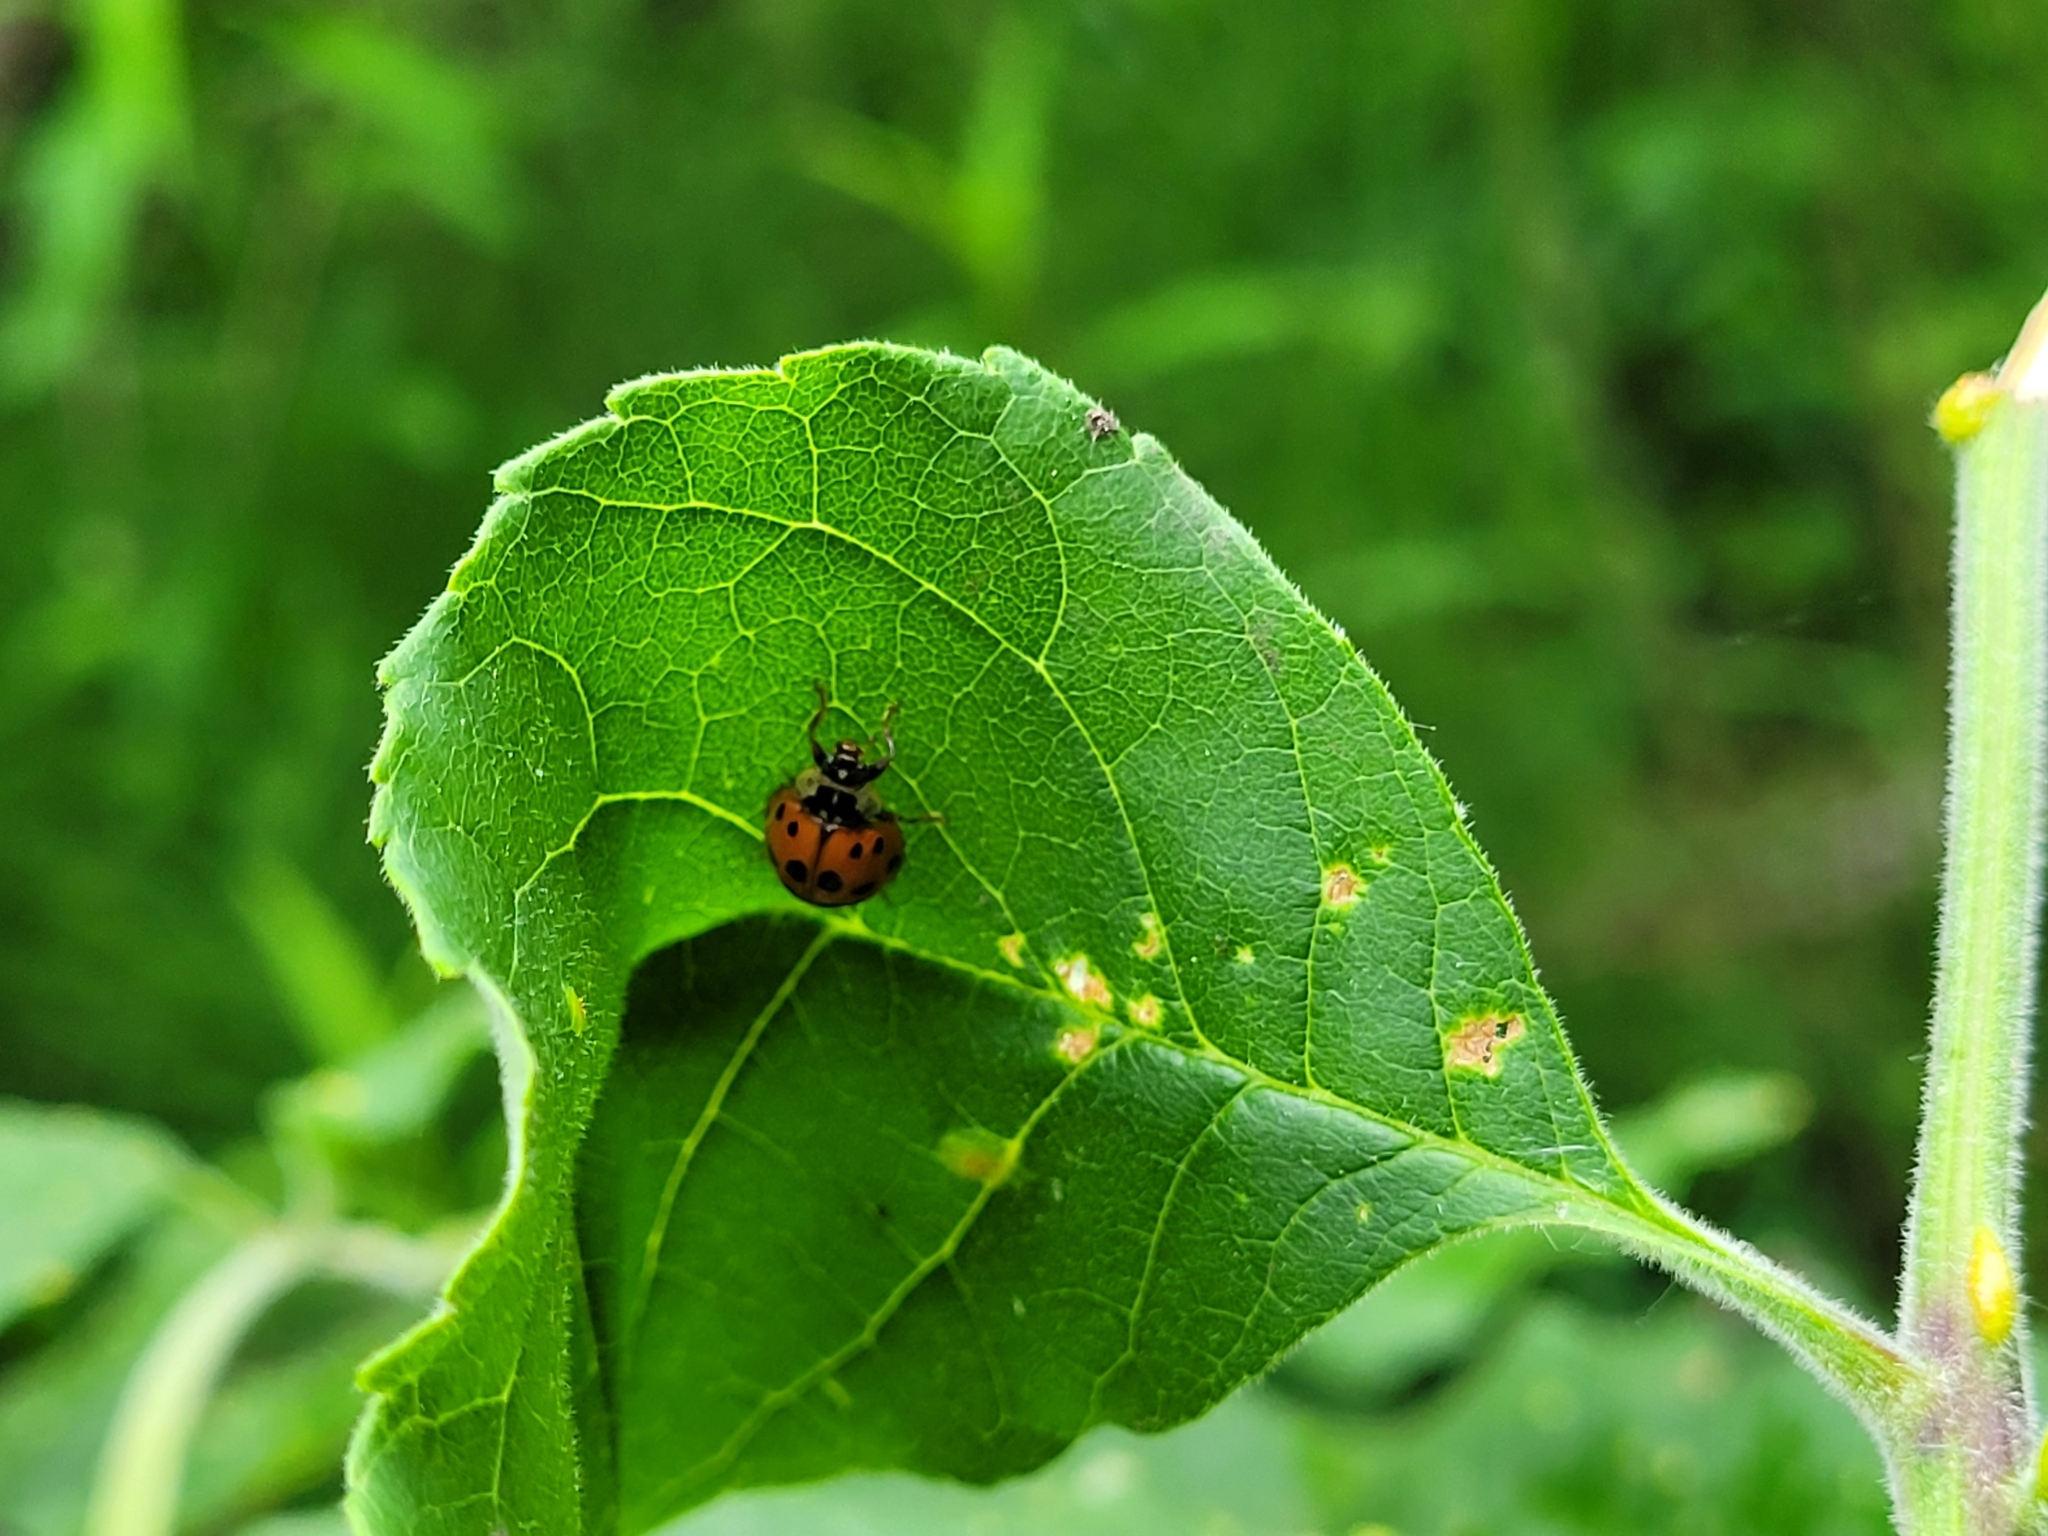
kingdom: Animalia
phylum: Arthropoda
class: Insecta
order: Coleoptera
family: Coccinellidae
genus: Harmonia
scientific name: Harmonia axyridis
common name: Harlequin ladybird
